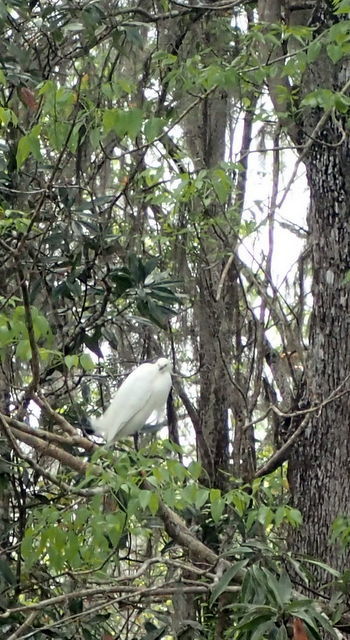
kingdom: Animalia
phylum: Chordata
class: Aves
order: Pelecaniformes
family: Ardeidae
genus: Egretta
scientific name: Egretta thula
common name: Snowy egret
